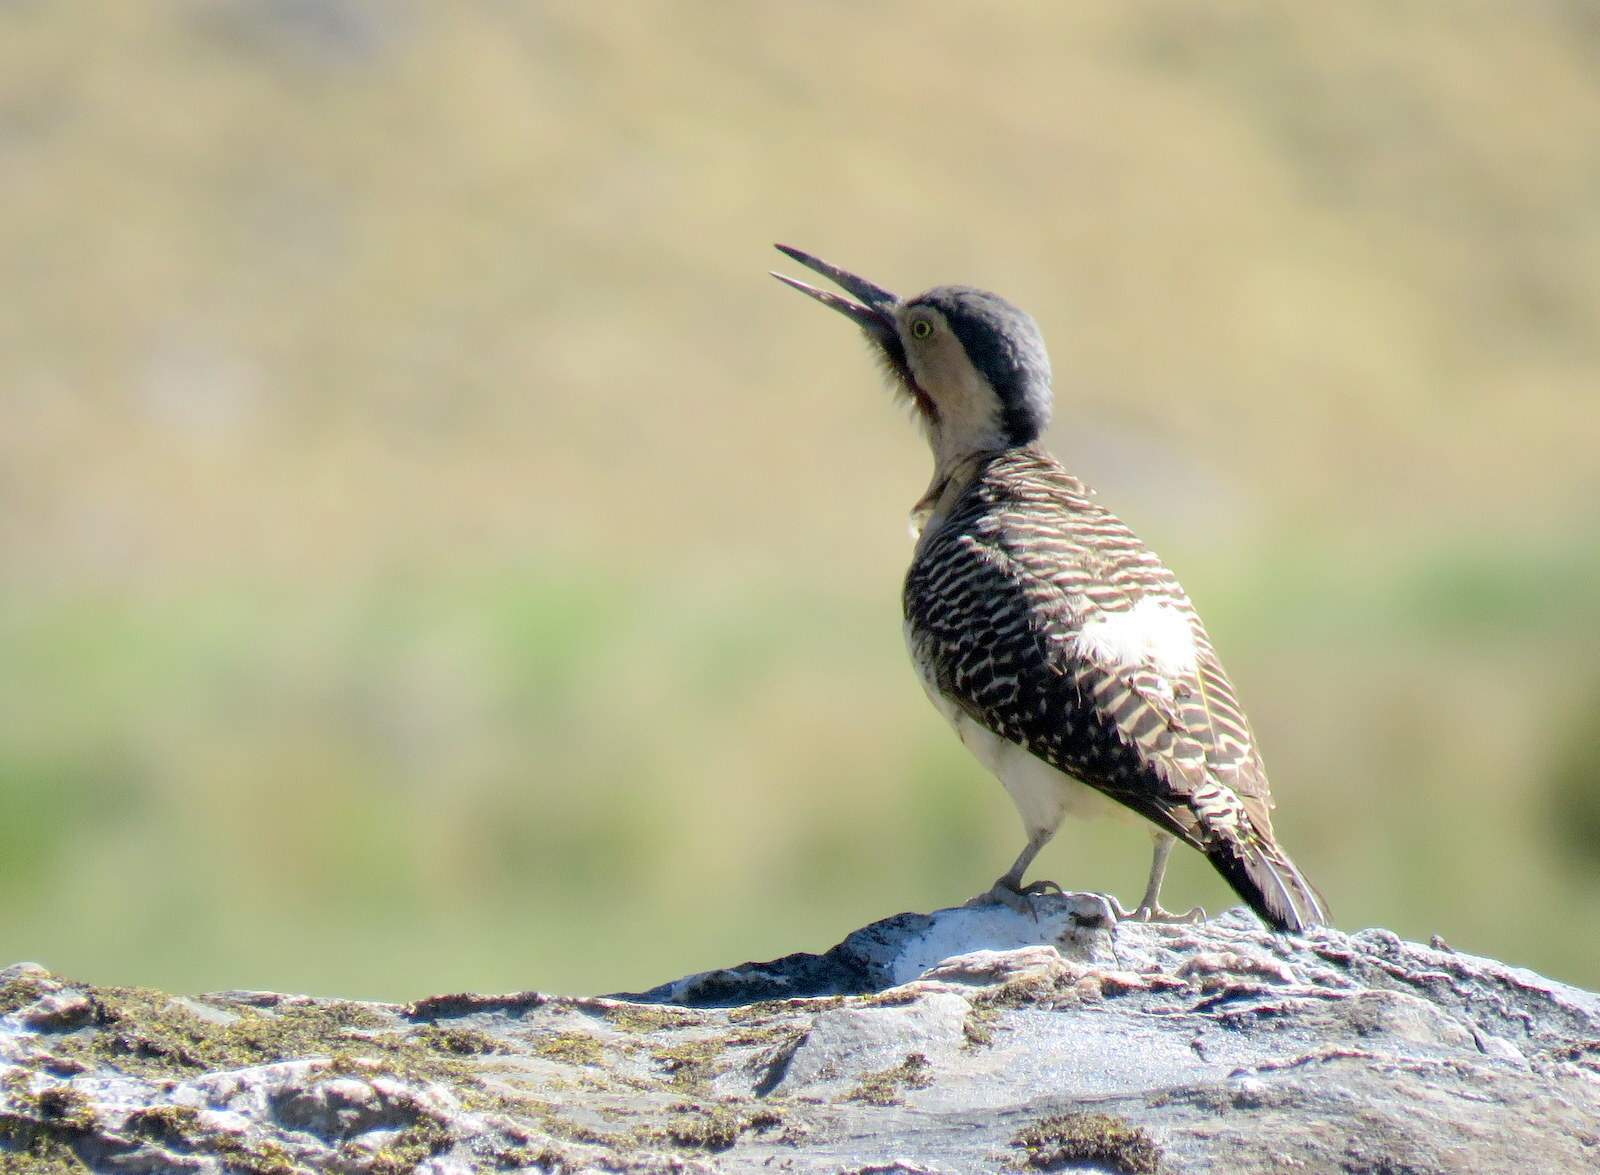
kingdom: Animalia
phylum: Chordata
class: Aves
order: Piciformes
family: Picidae
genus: Colaptes
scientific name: Colaptes rupicola
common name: Andean flicker
